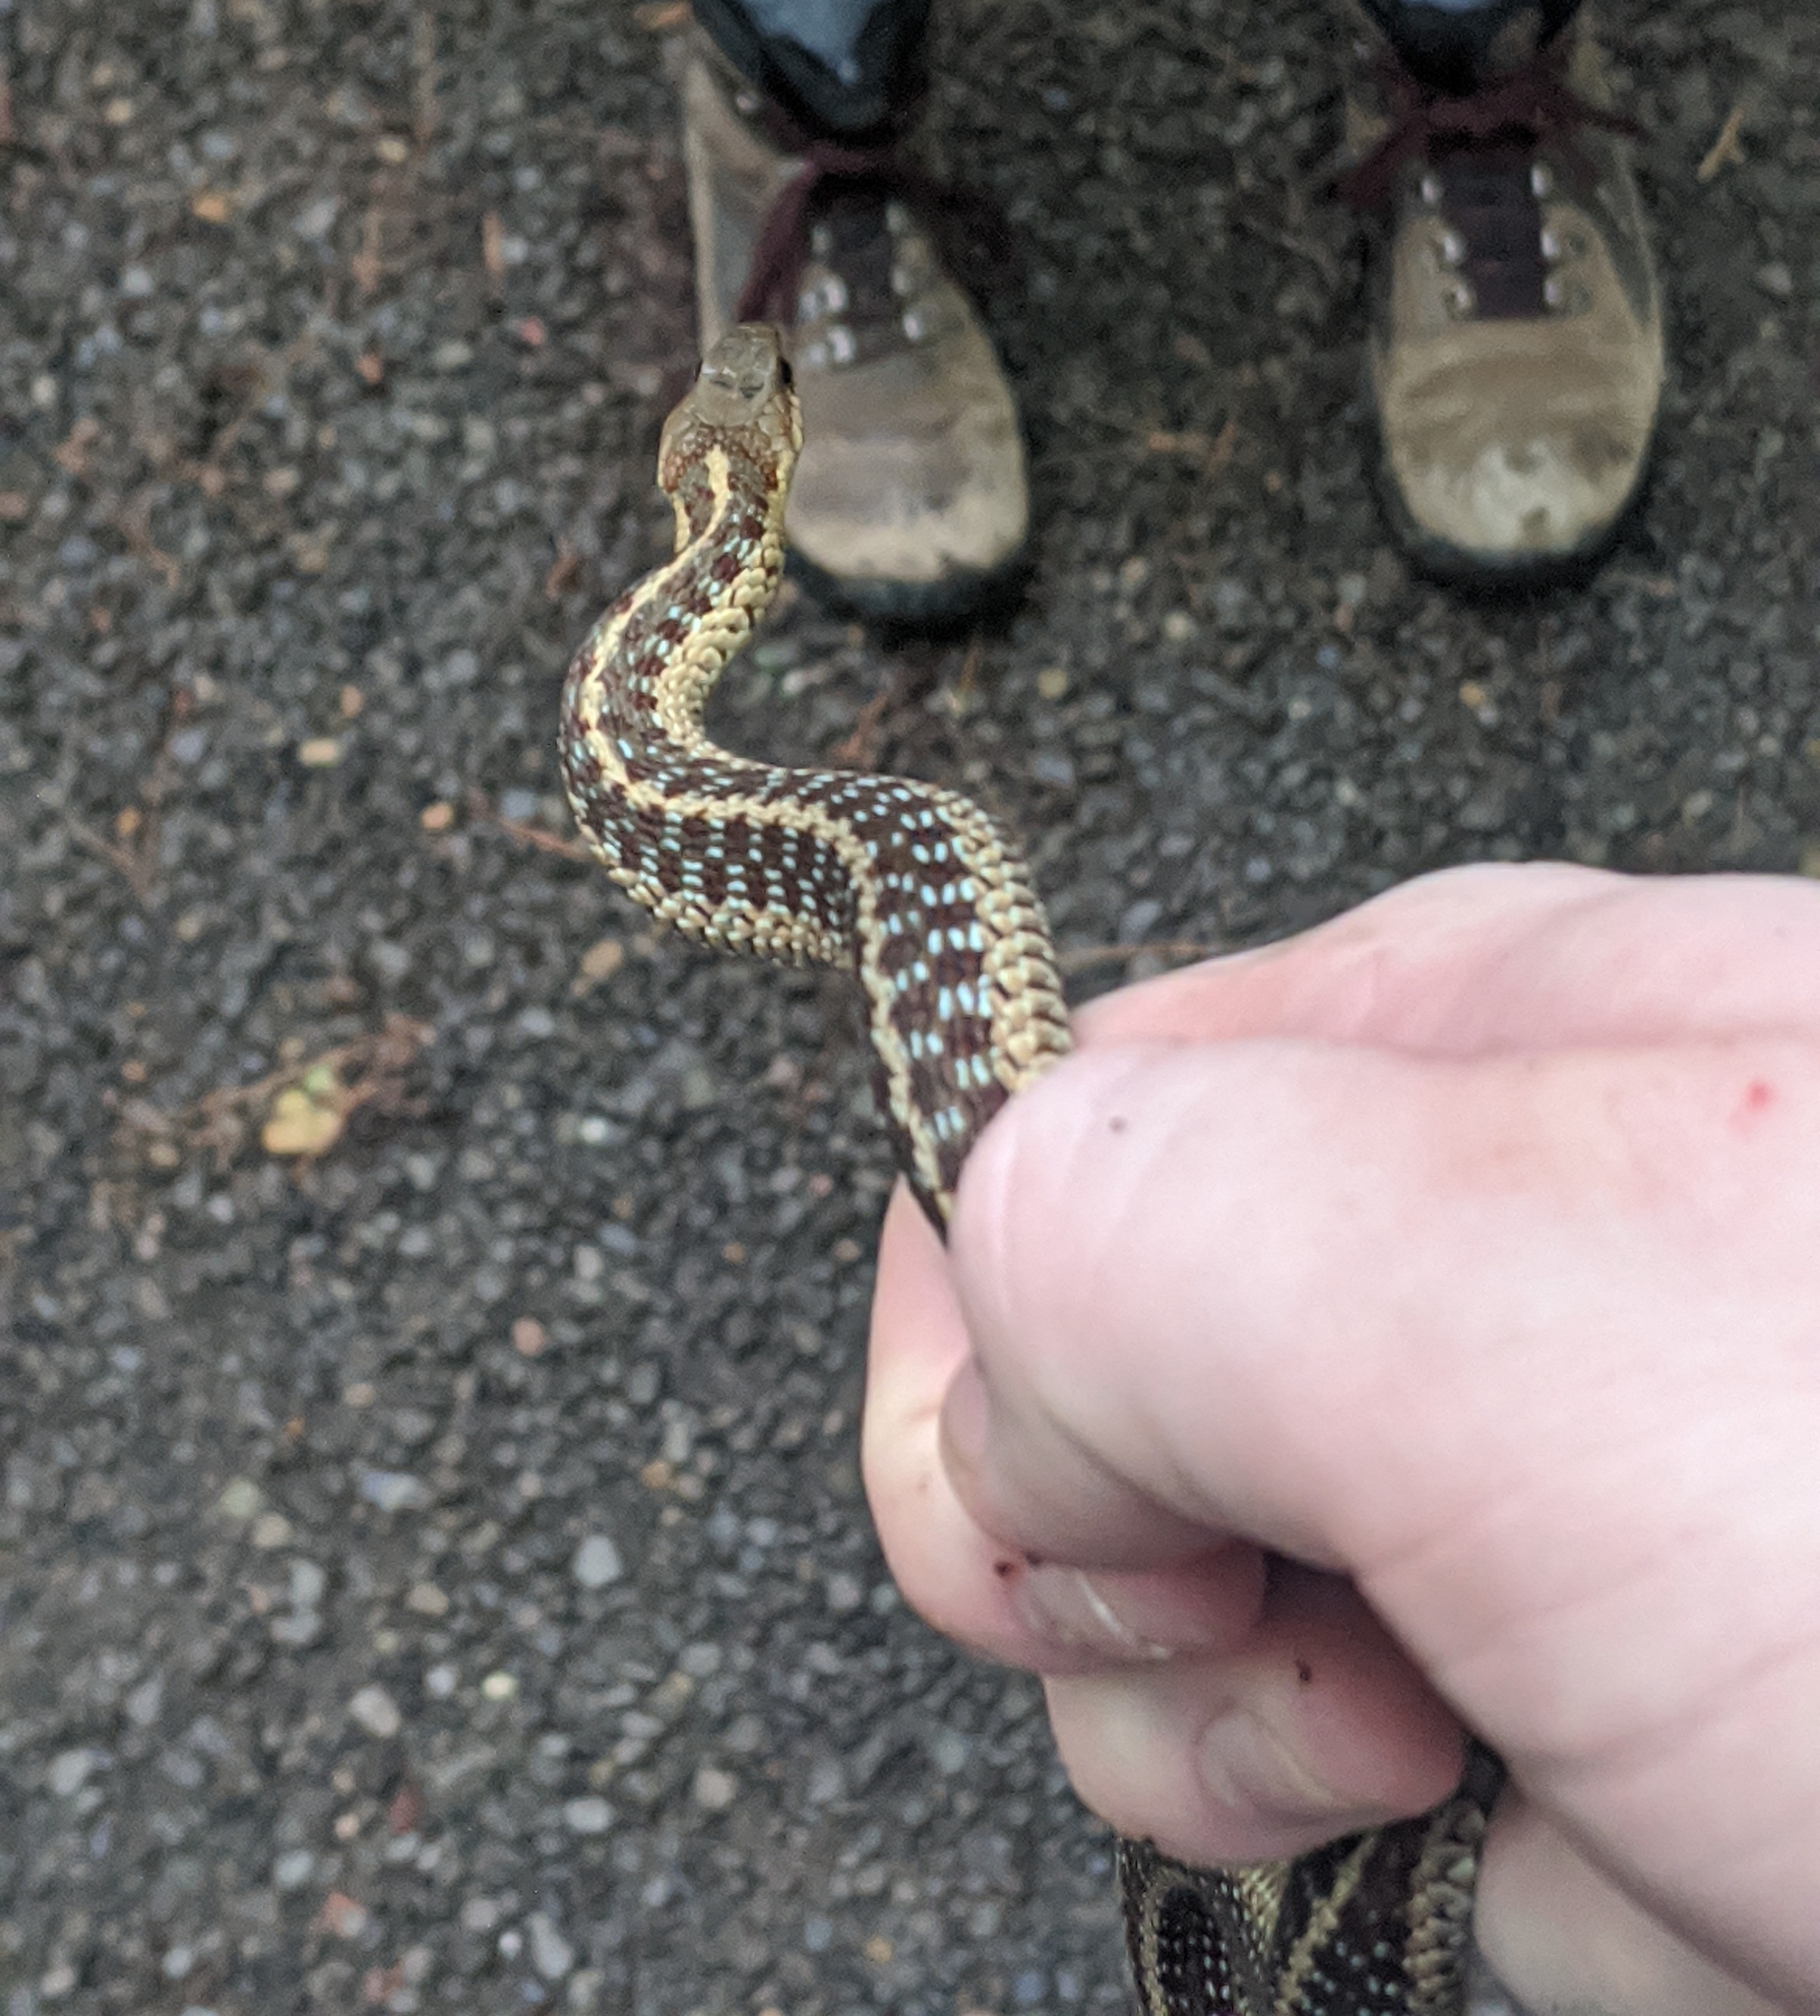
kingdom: Animalia
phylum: Chordata
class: Squamata
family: Colubridae
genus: Thamnophis
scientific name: Thamnophis sirtalis
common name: Common garter snake
